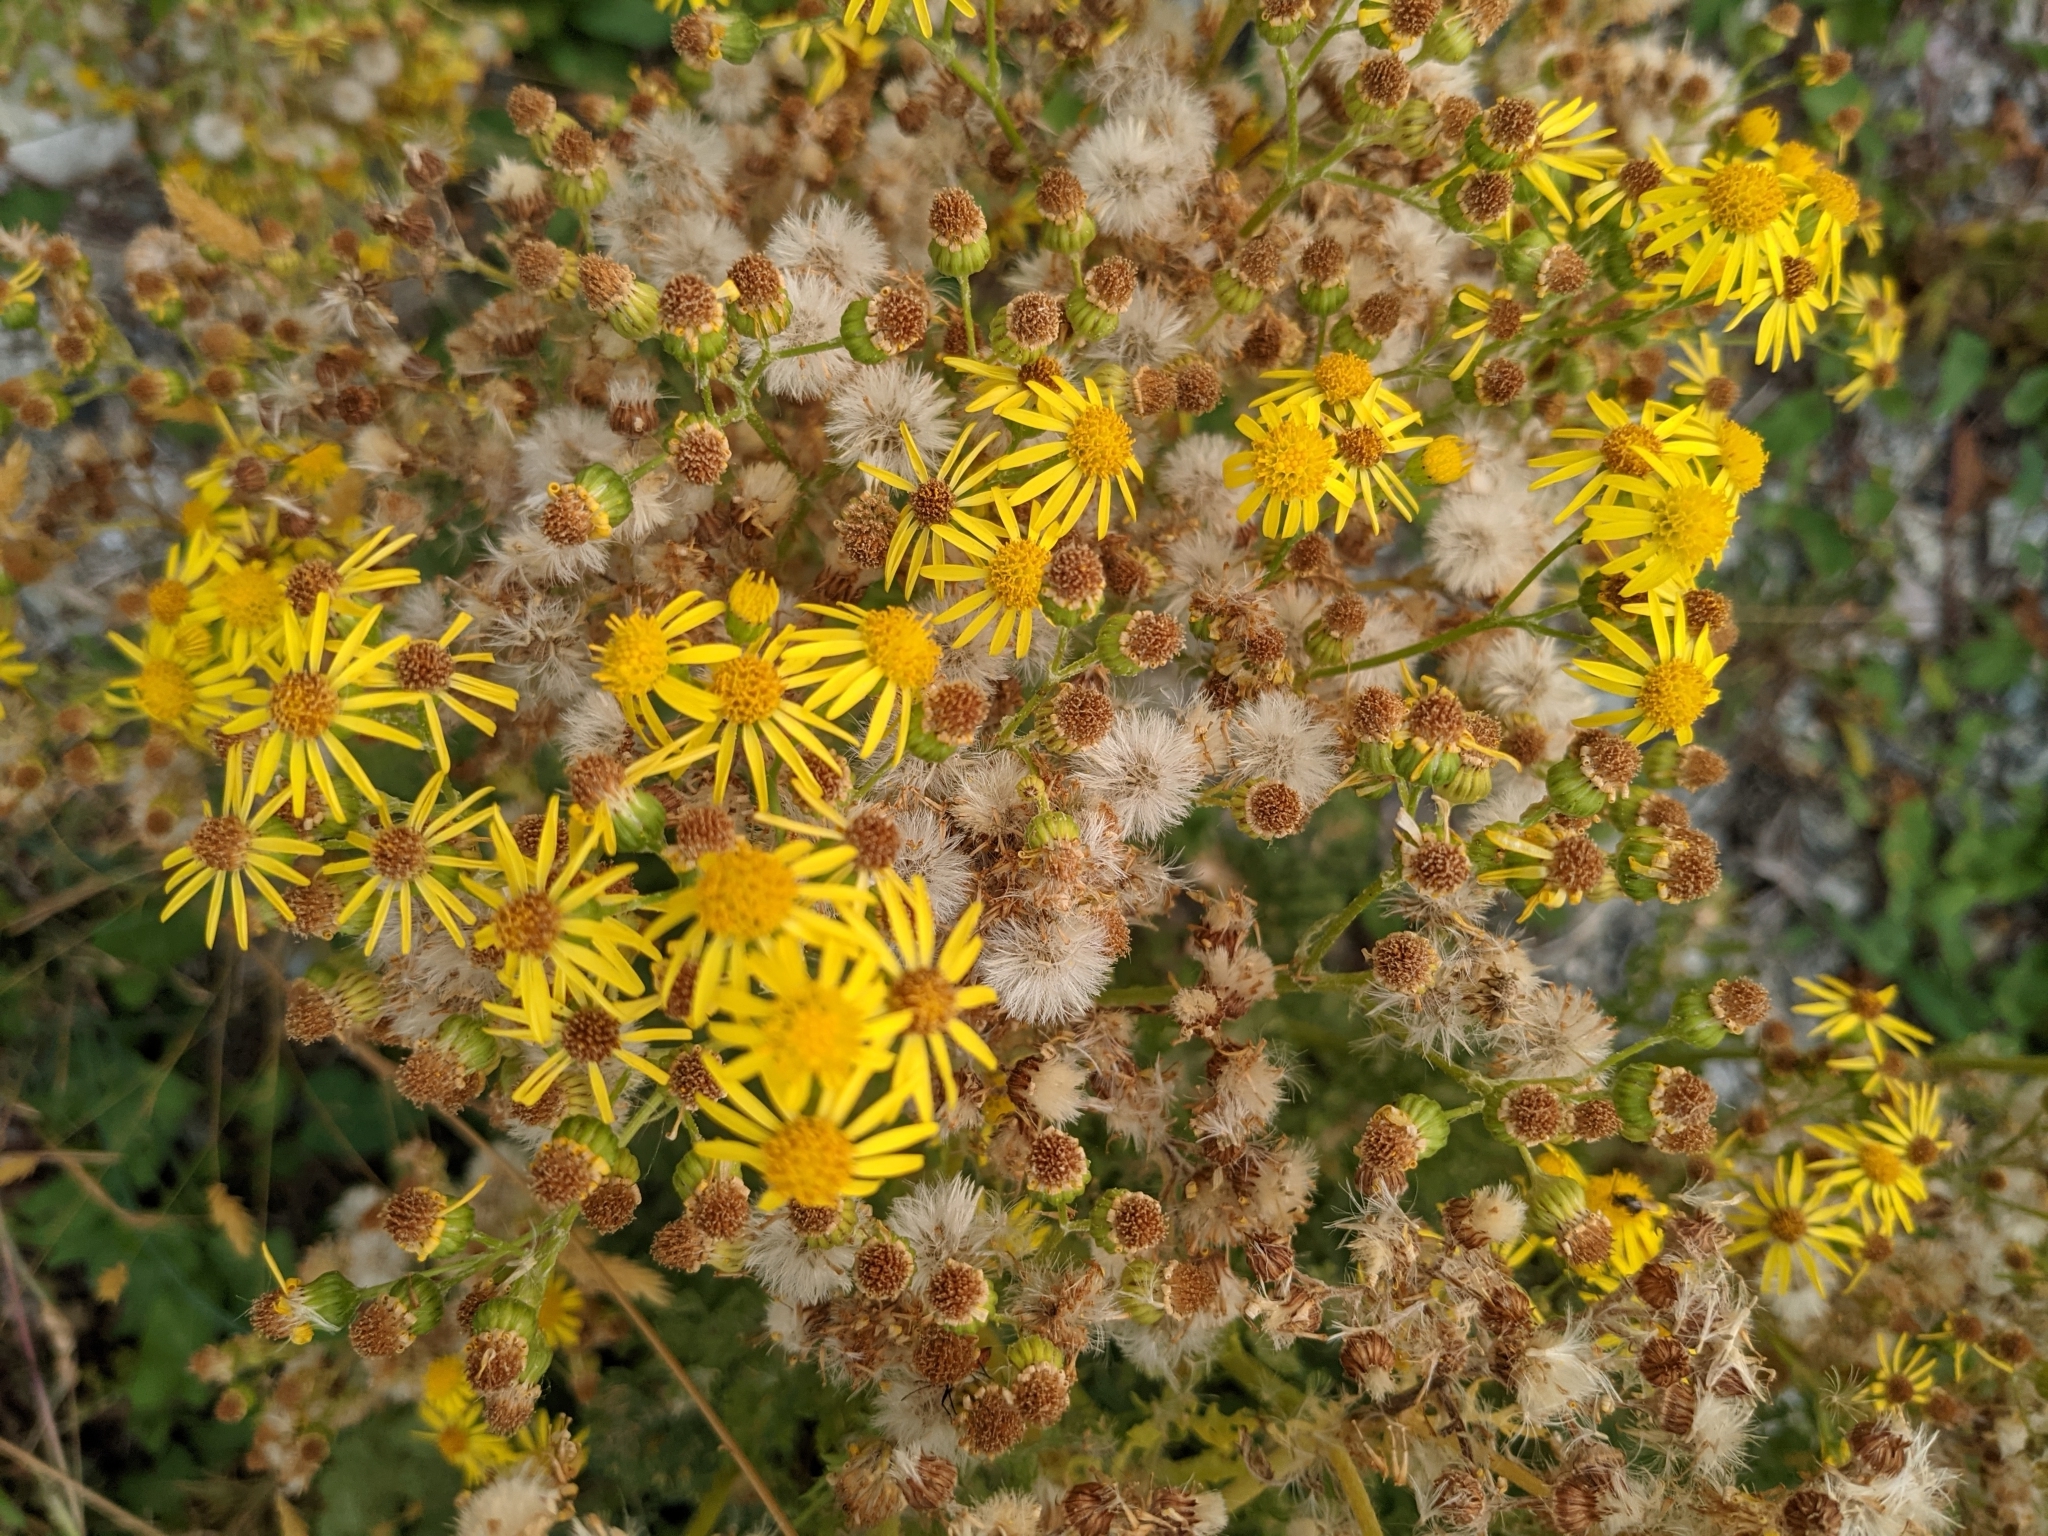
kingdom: Plantae
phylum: Tracheophyta
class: Magnoliopsida
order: Asterales
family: Asteraceae
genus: Jacobaea
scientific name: Jacobaea vulgaris
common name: Stinking willie
